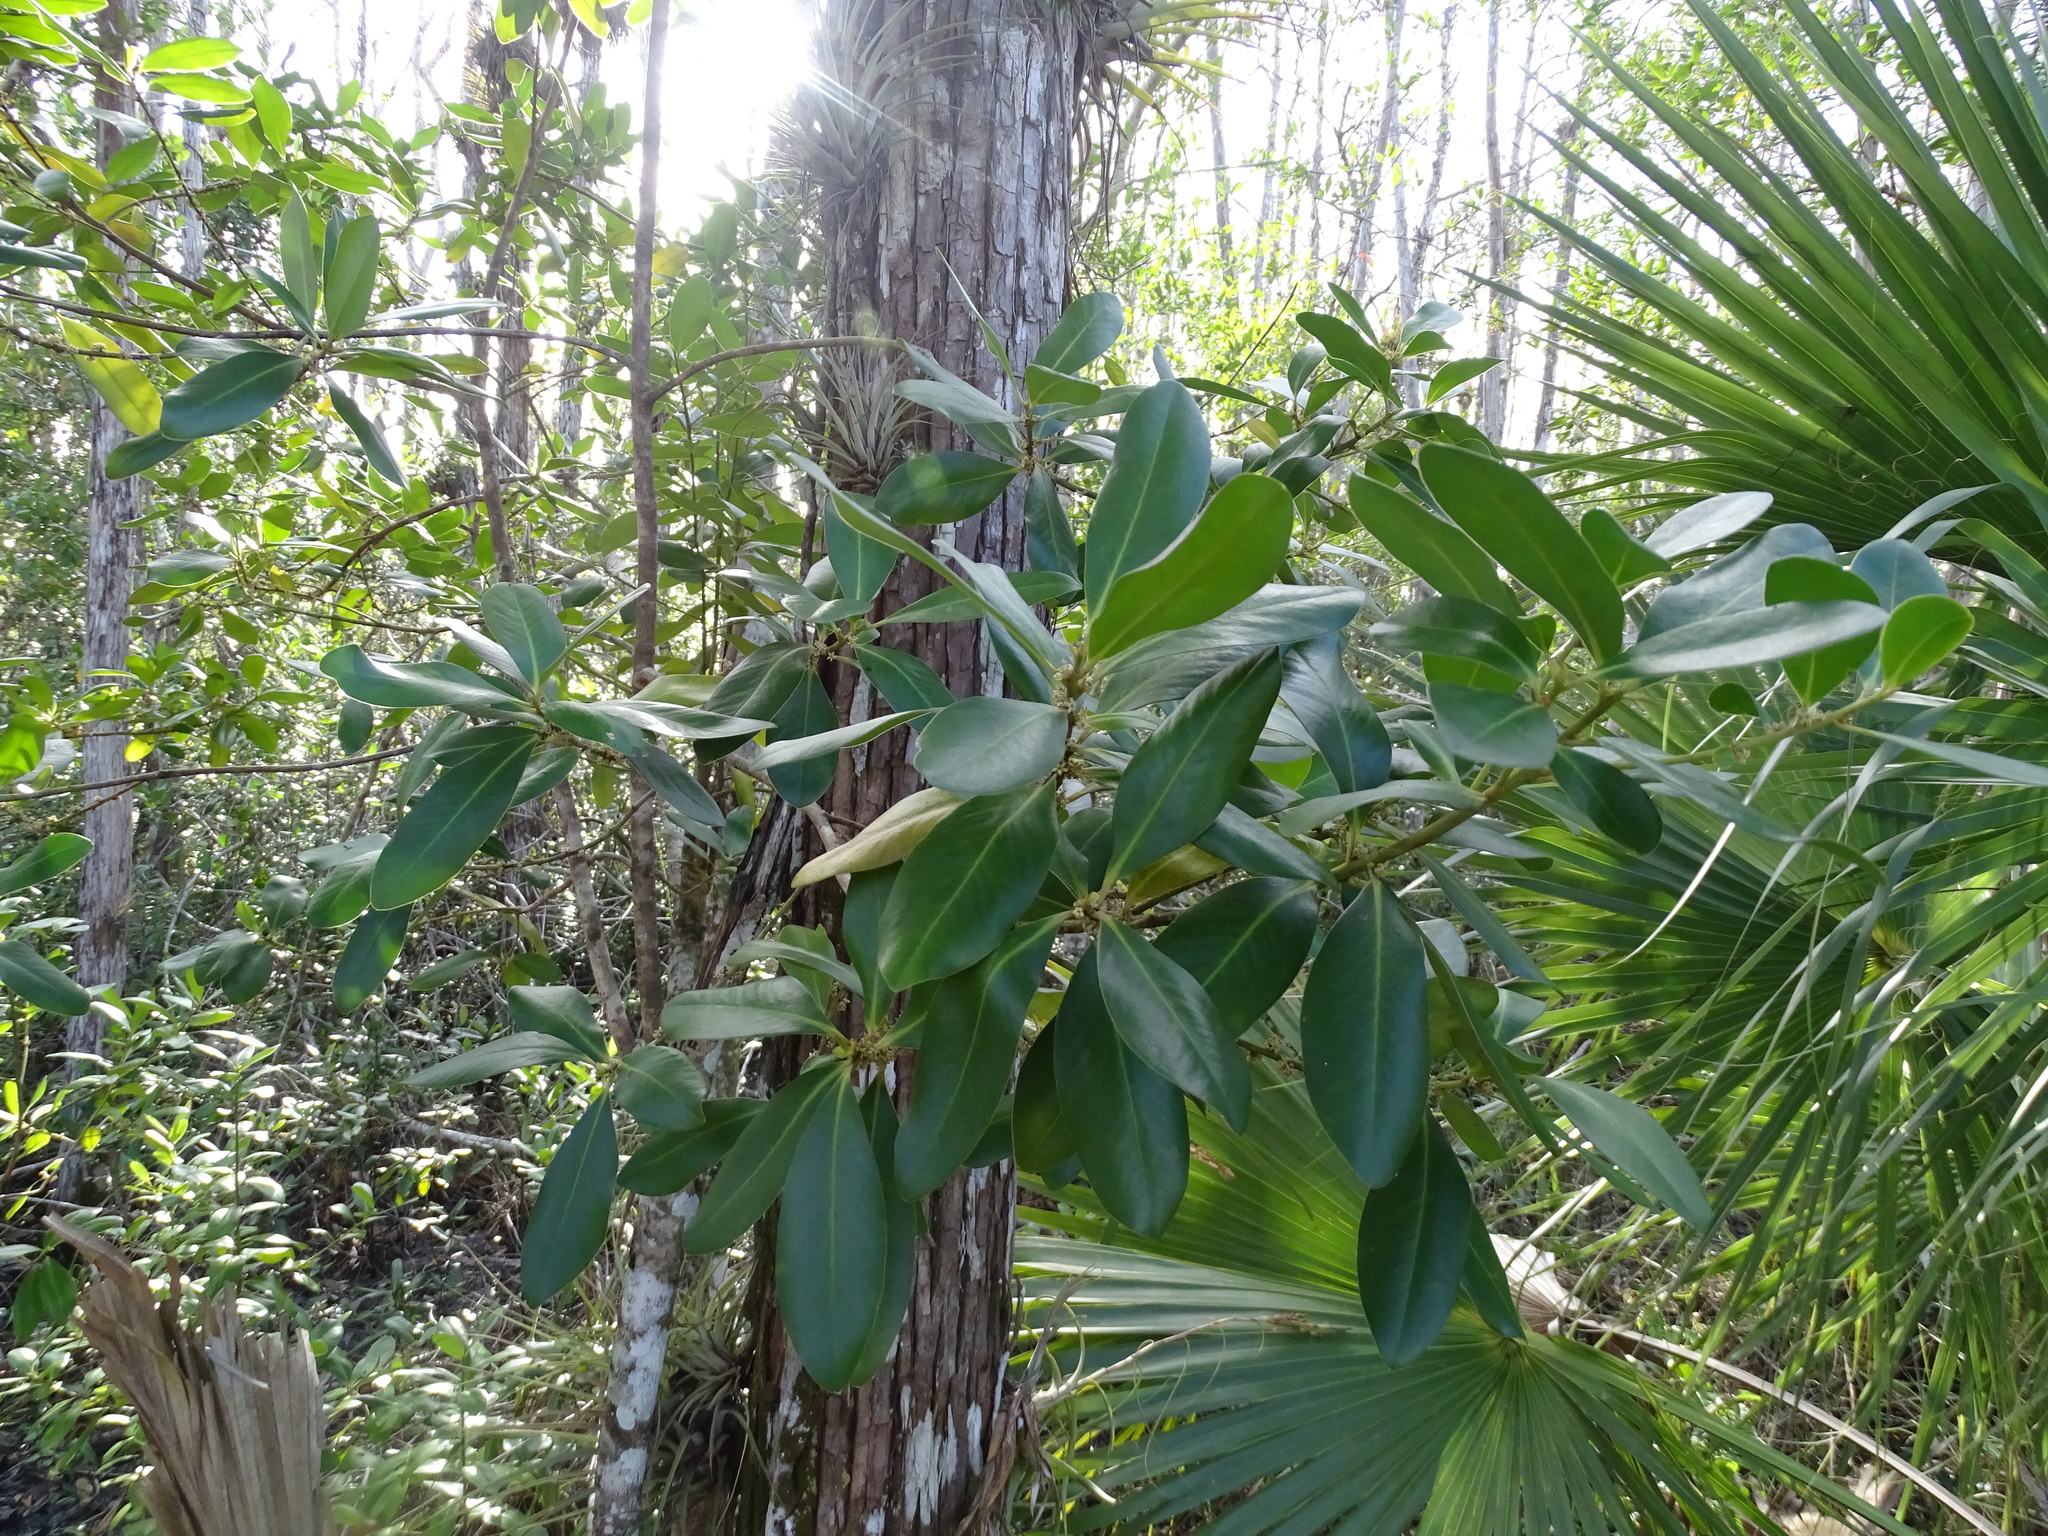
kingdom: Plantae
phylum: Tracheophyta
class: Magnoliopsida
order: Ericales
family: Primulaceae
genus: Myrsine
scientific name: Myrsine floridana
